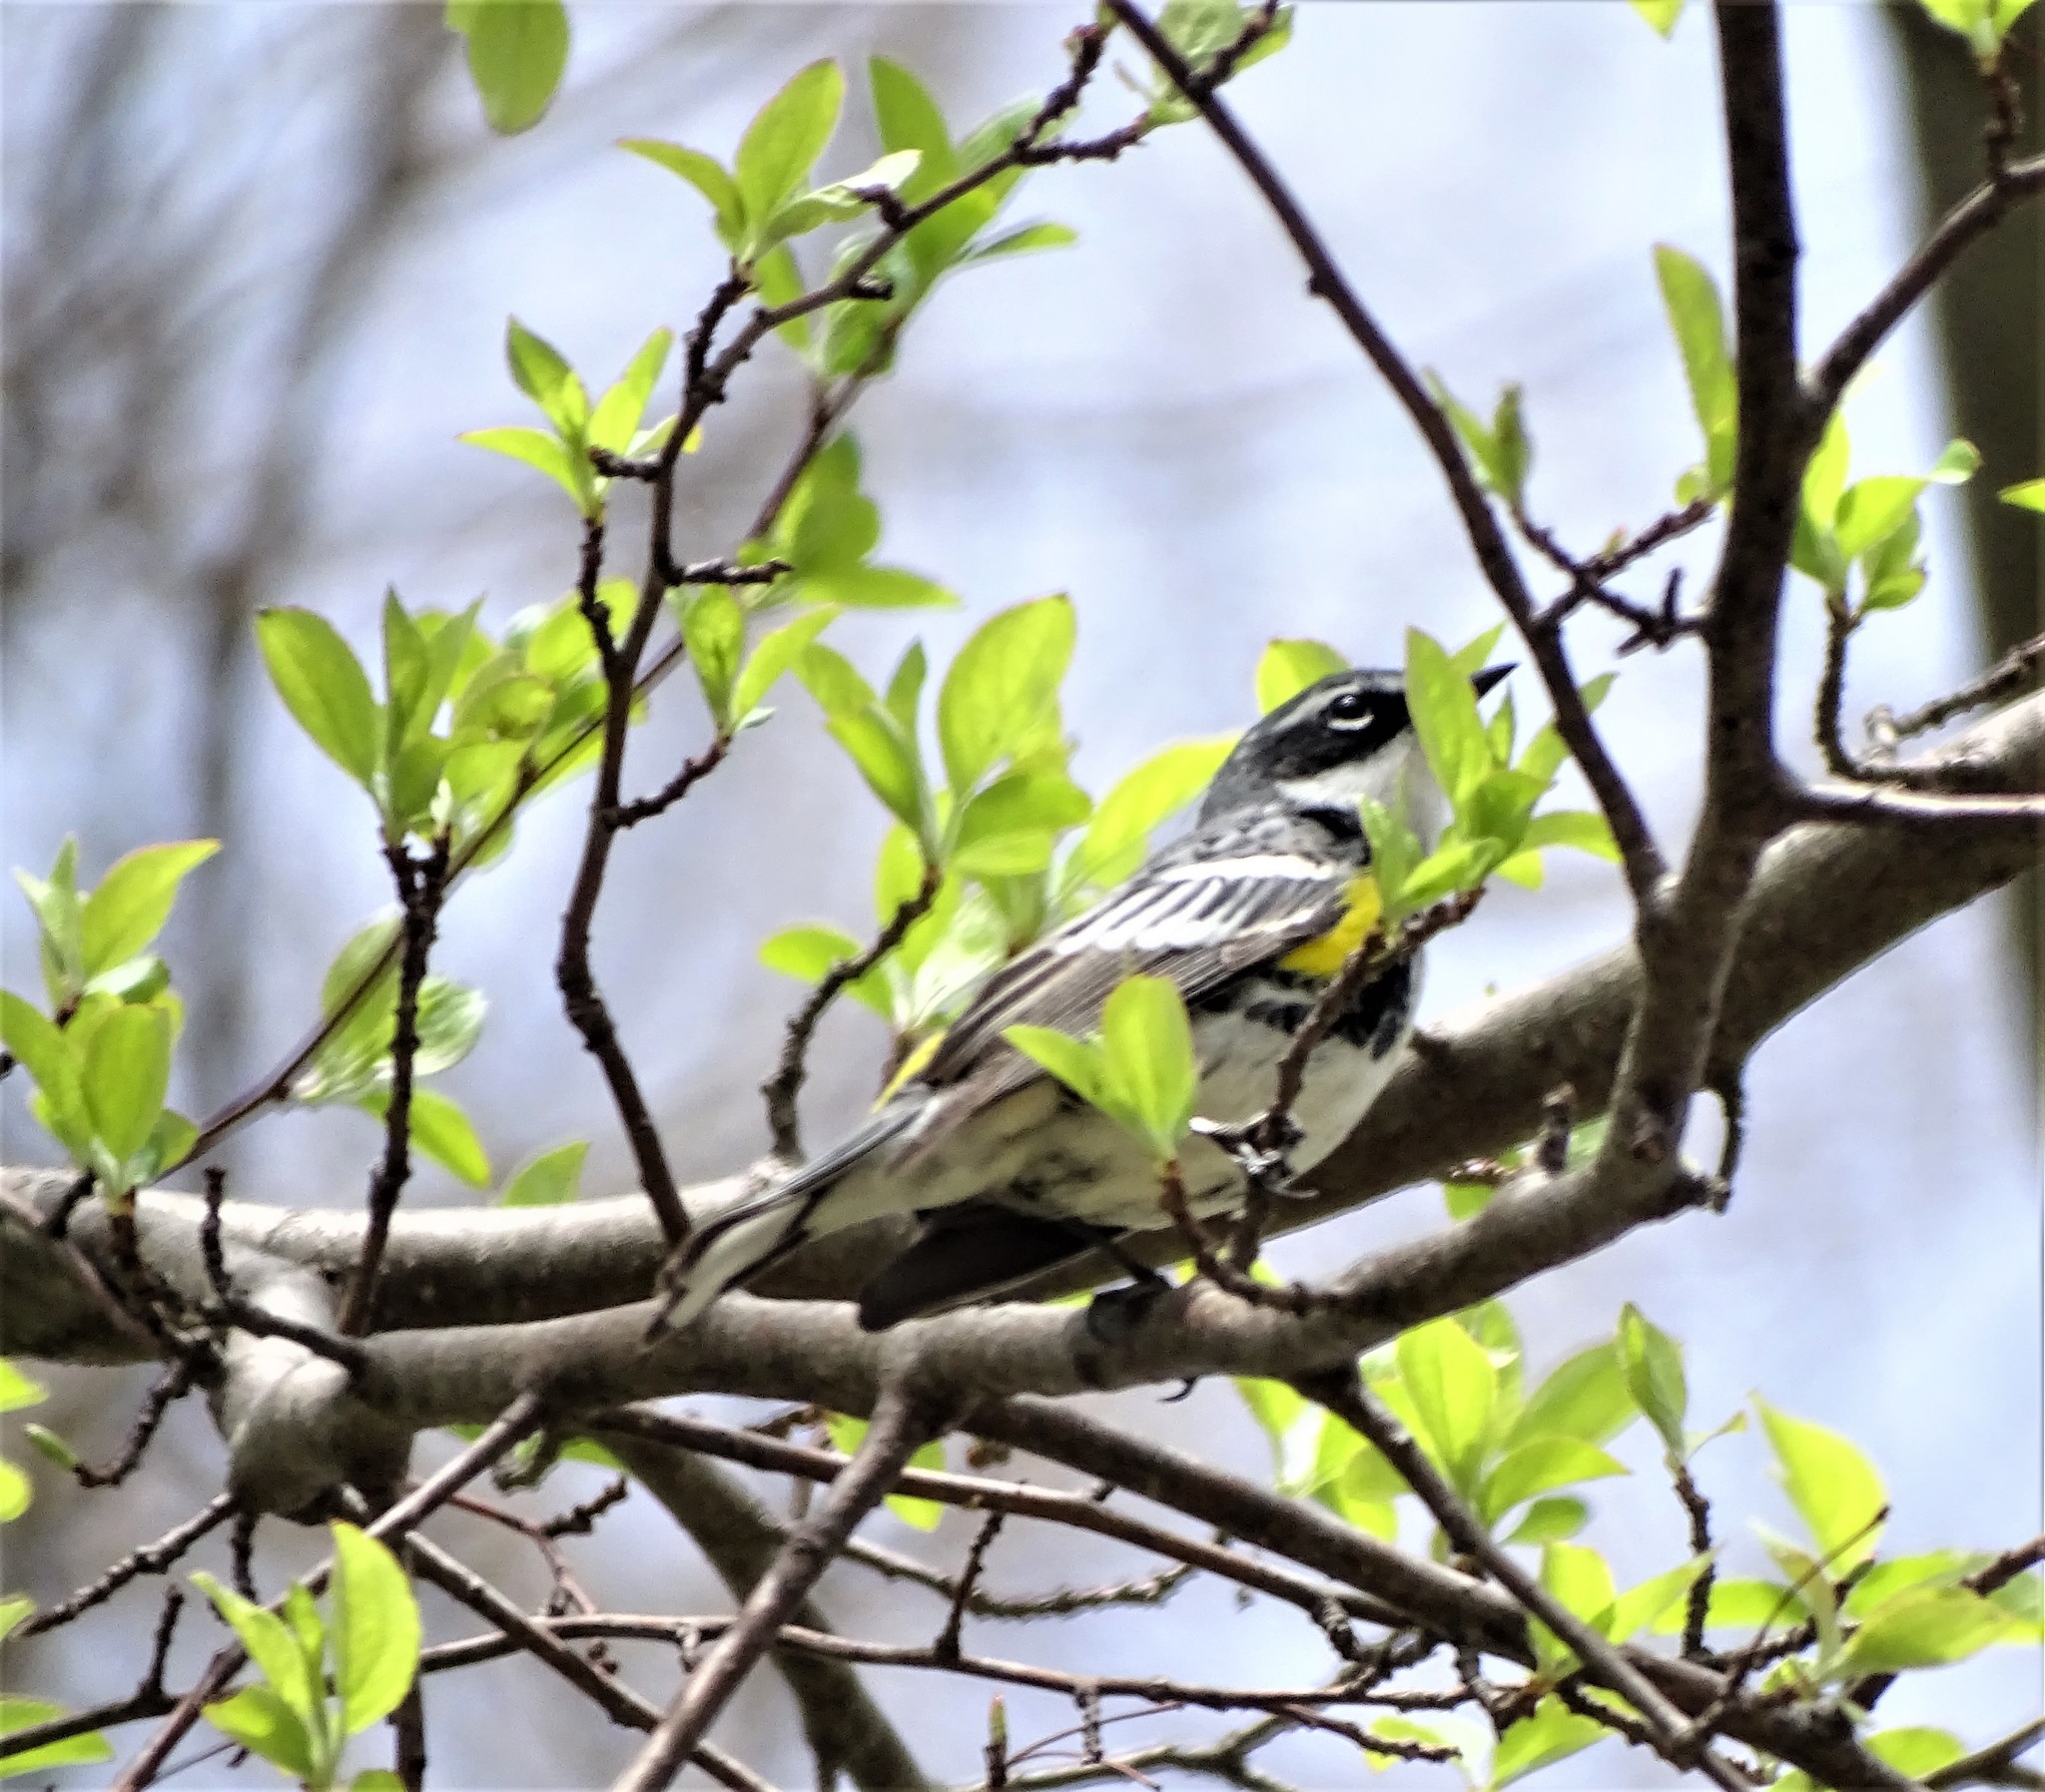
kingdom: Animalia
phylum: Chordata
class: Aves
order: Passeriformes
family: Parulidae
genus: Setophaga
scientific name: Setophaga coronata
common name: Myrtle warbler
